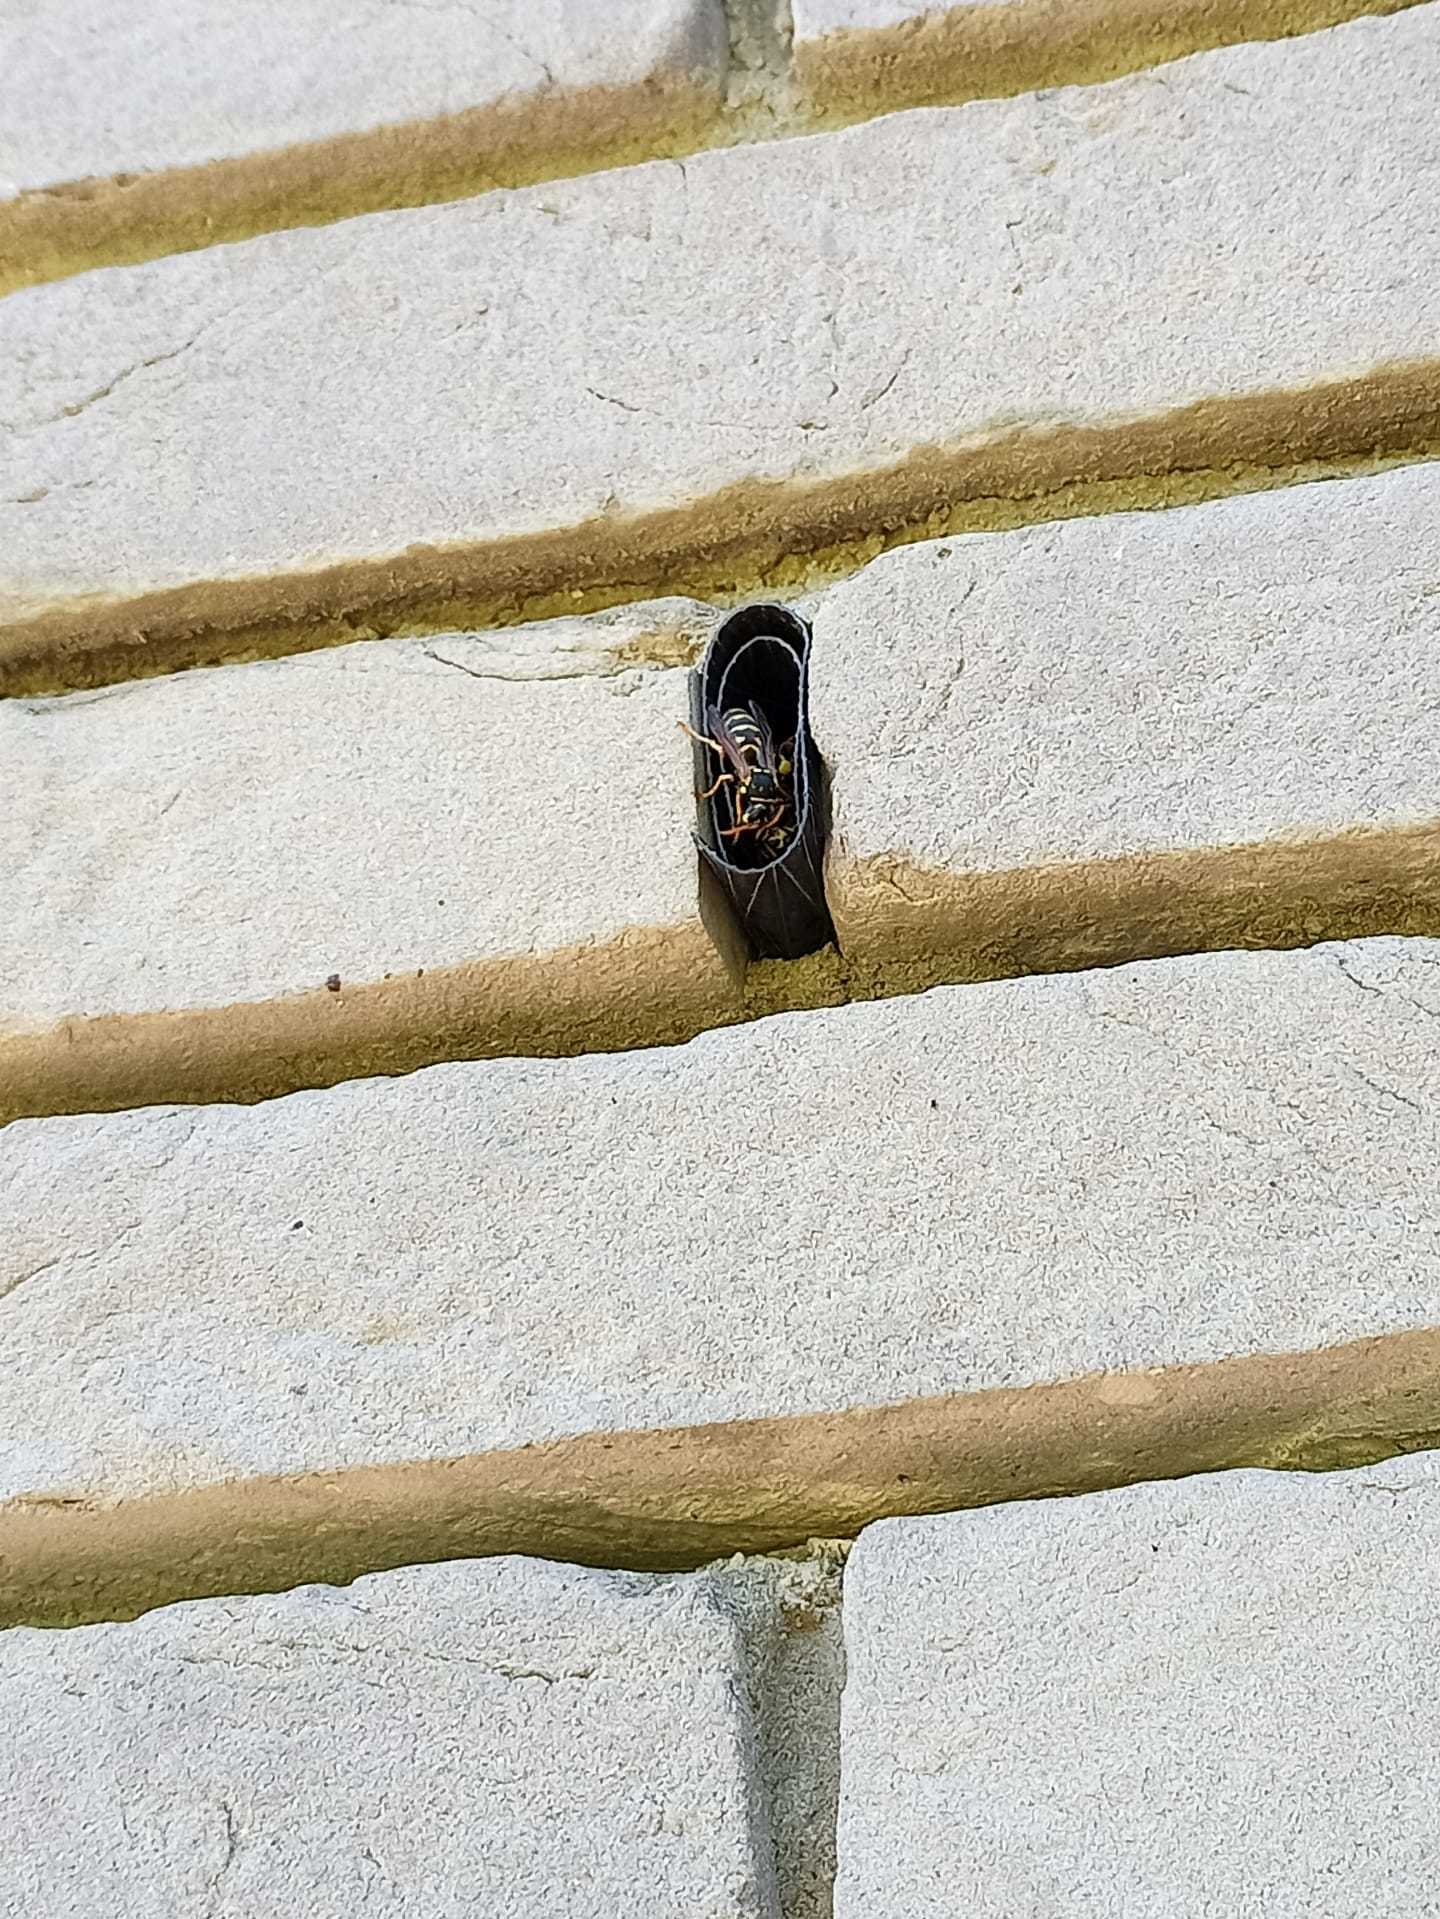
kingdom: Animalia
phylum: Arthropoda
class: Insecta
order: Hymenoptera
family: Eumenidae
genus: Polistes
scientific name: Polistes dominula
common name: Paper wasp
